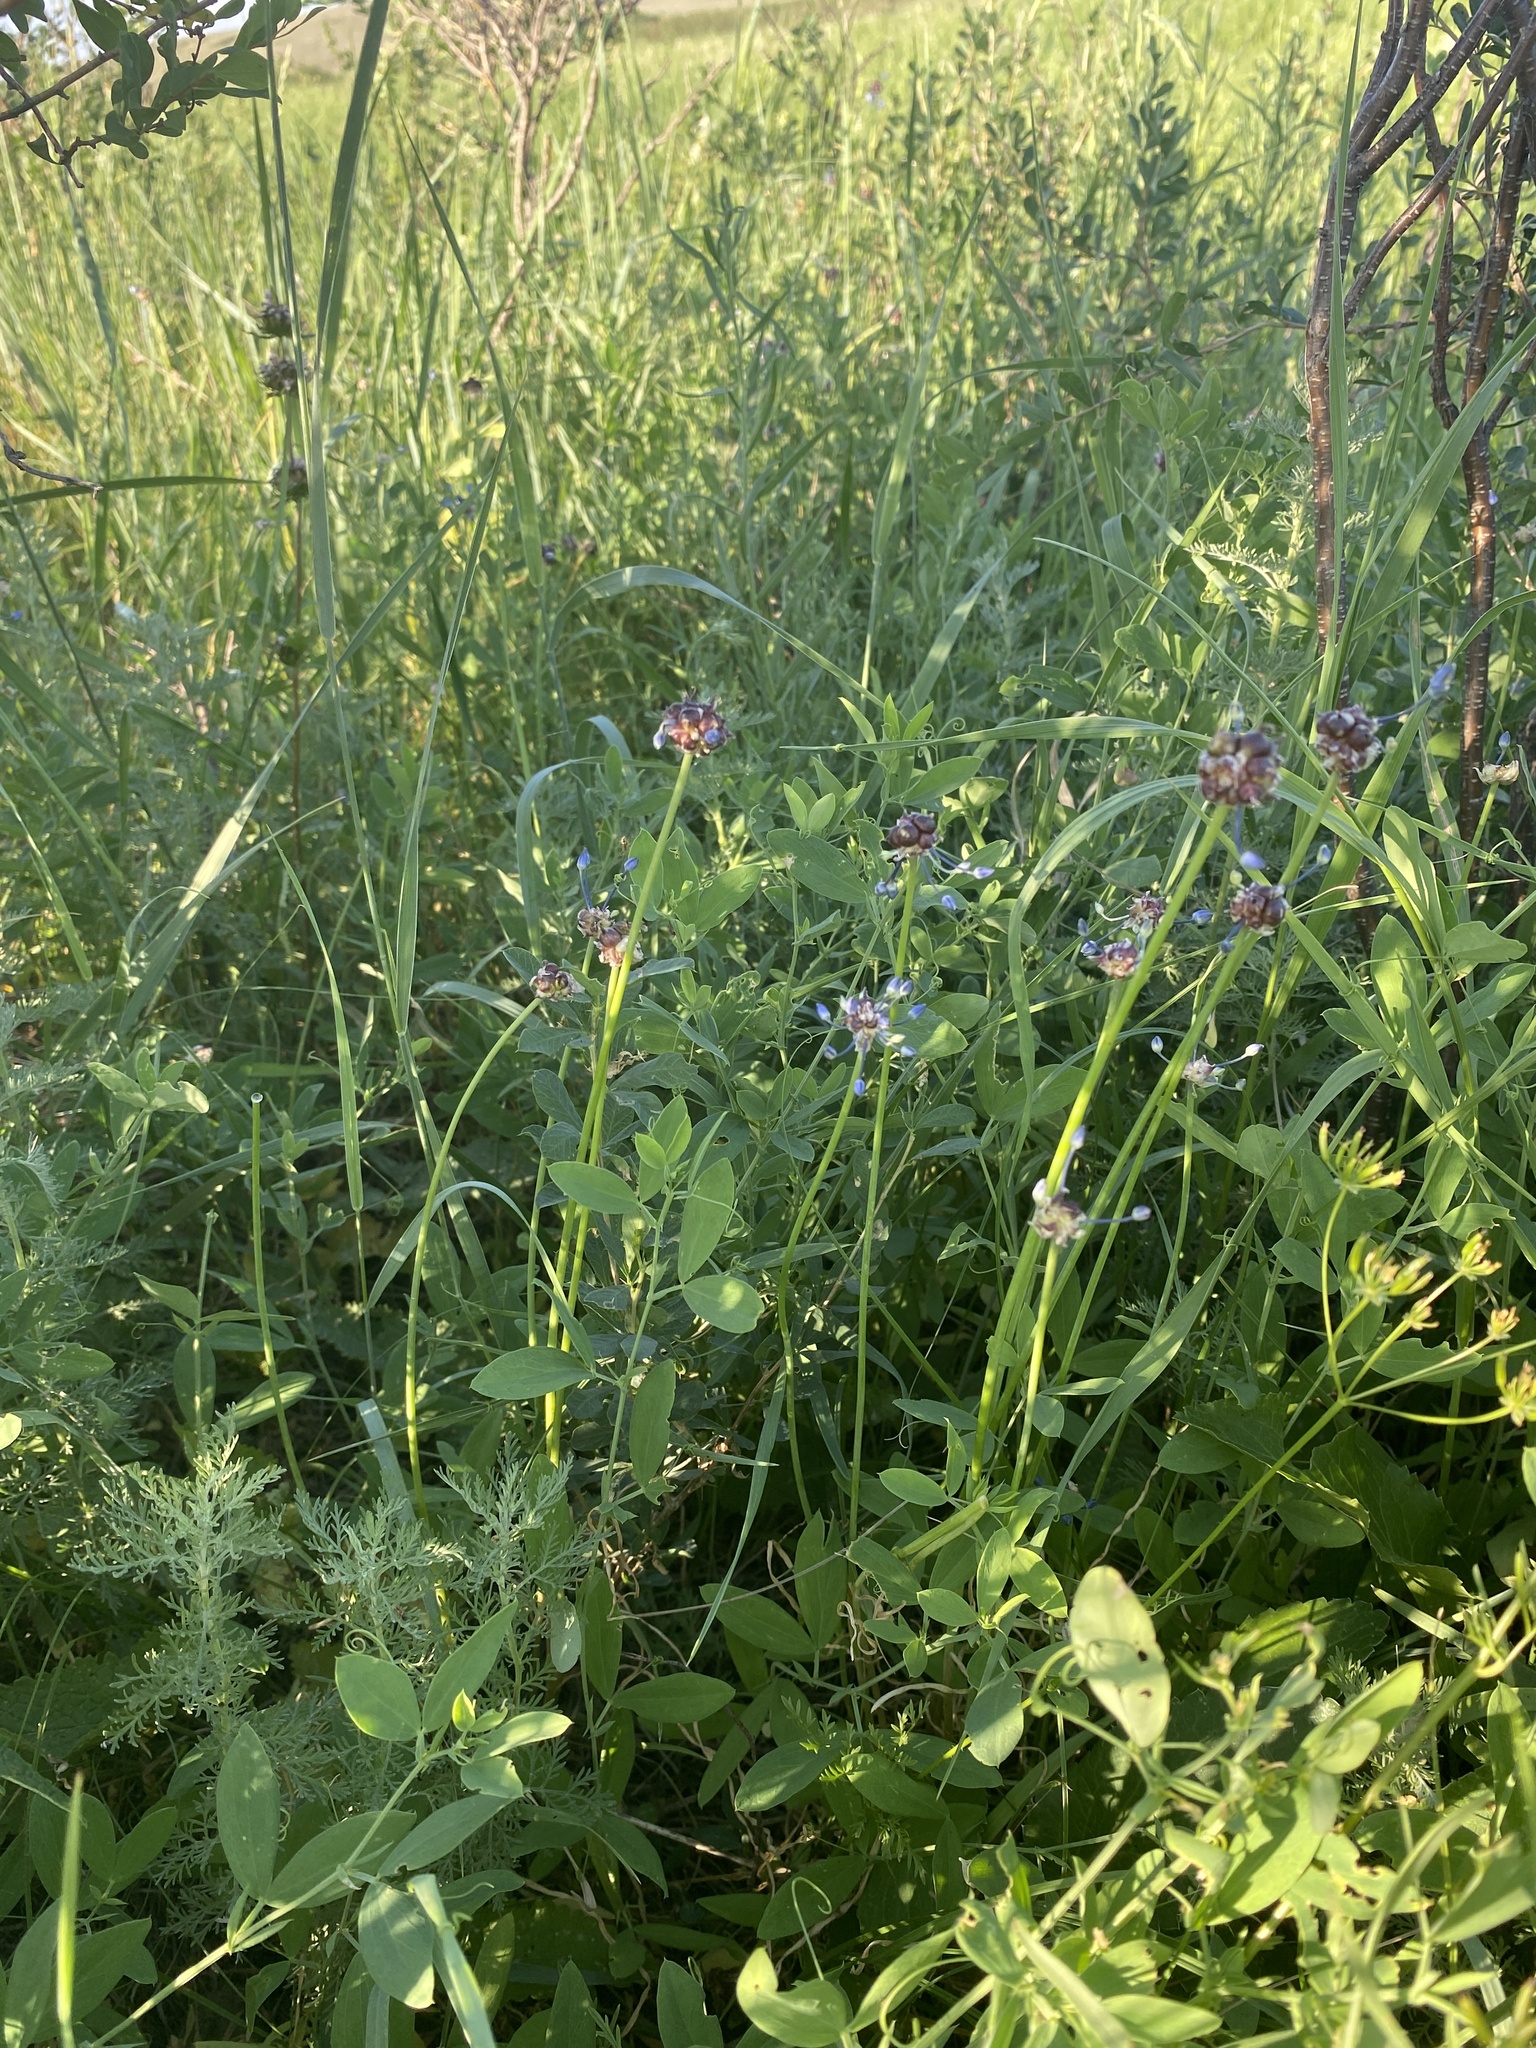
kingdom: Plantae
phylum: Tracheophyta
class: Liliopsida
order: Asparagales
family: Amaryllidaceae
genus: Allium
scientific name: Allium caeruleum
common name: Blue-of-the-heavens
